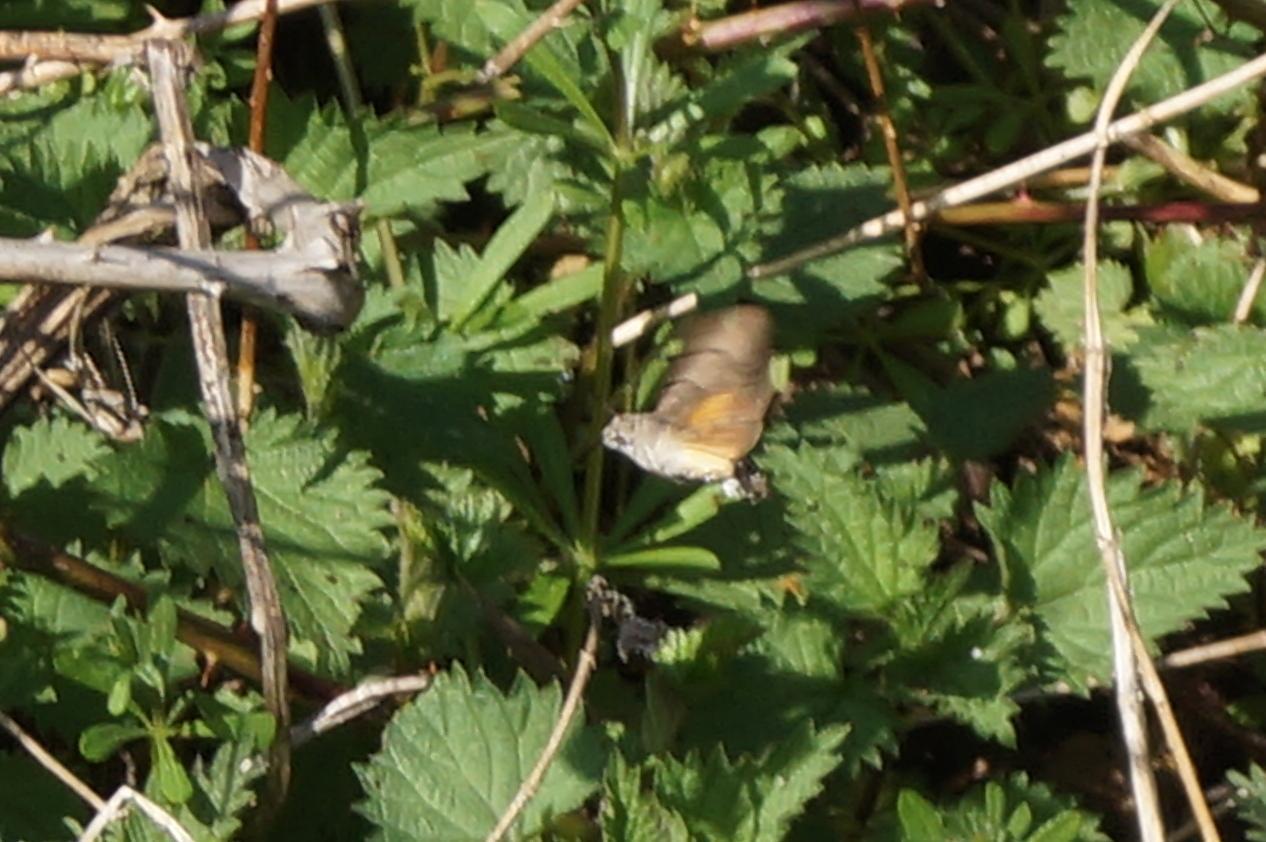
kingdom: Animalia
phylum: Arthropoda
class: Insecta
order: Lepidoptera
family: Sphingidae
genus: Macroglossum
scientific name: Macroglossum stellatarum
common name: Humming-bird hawk-moth
